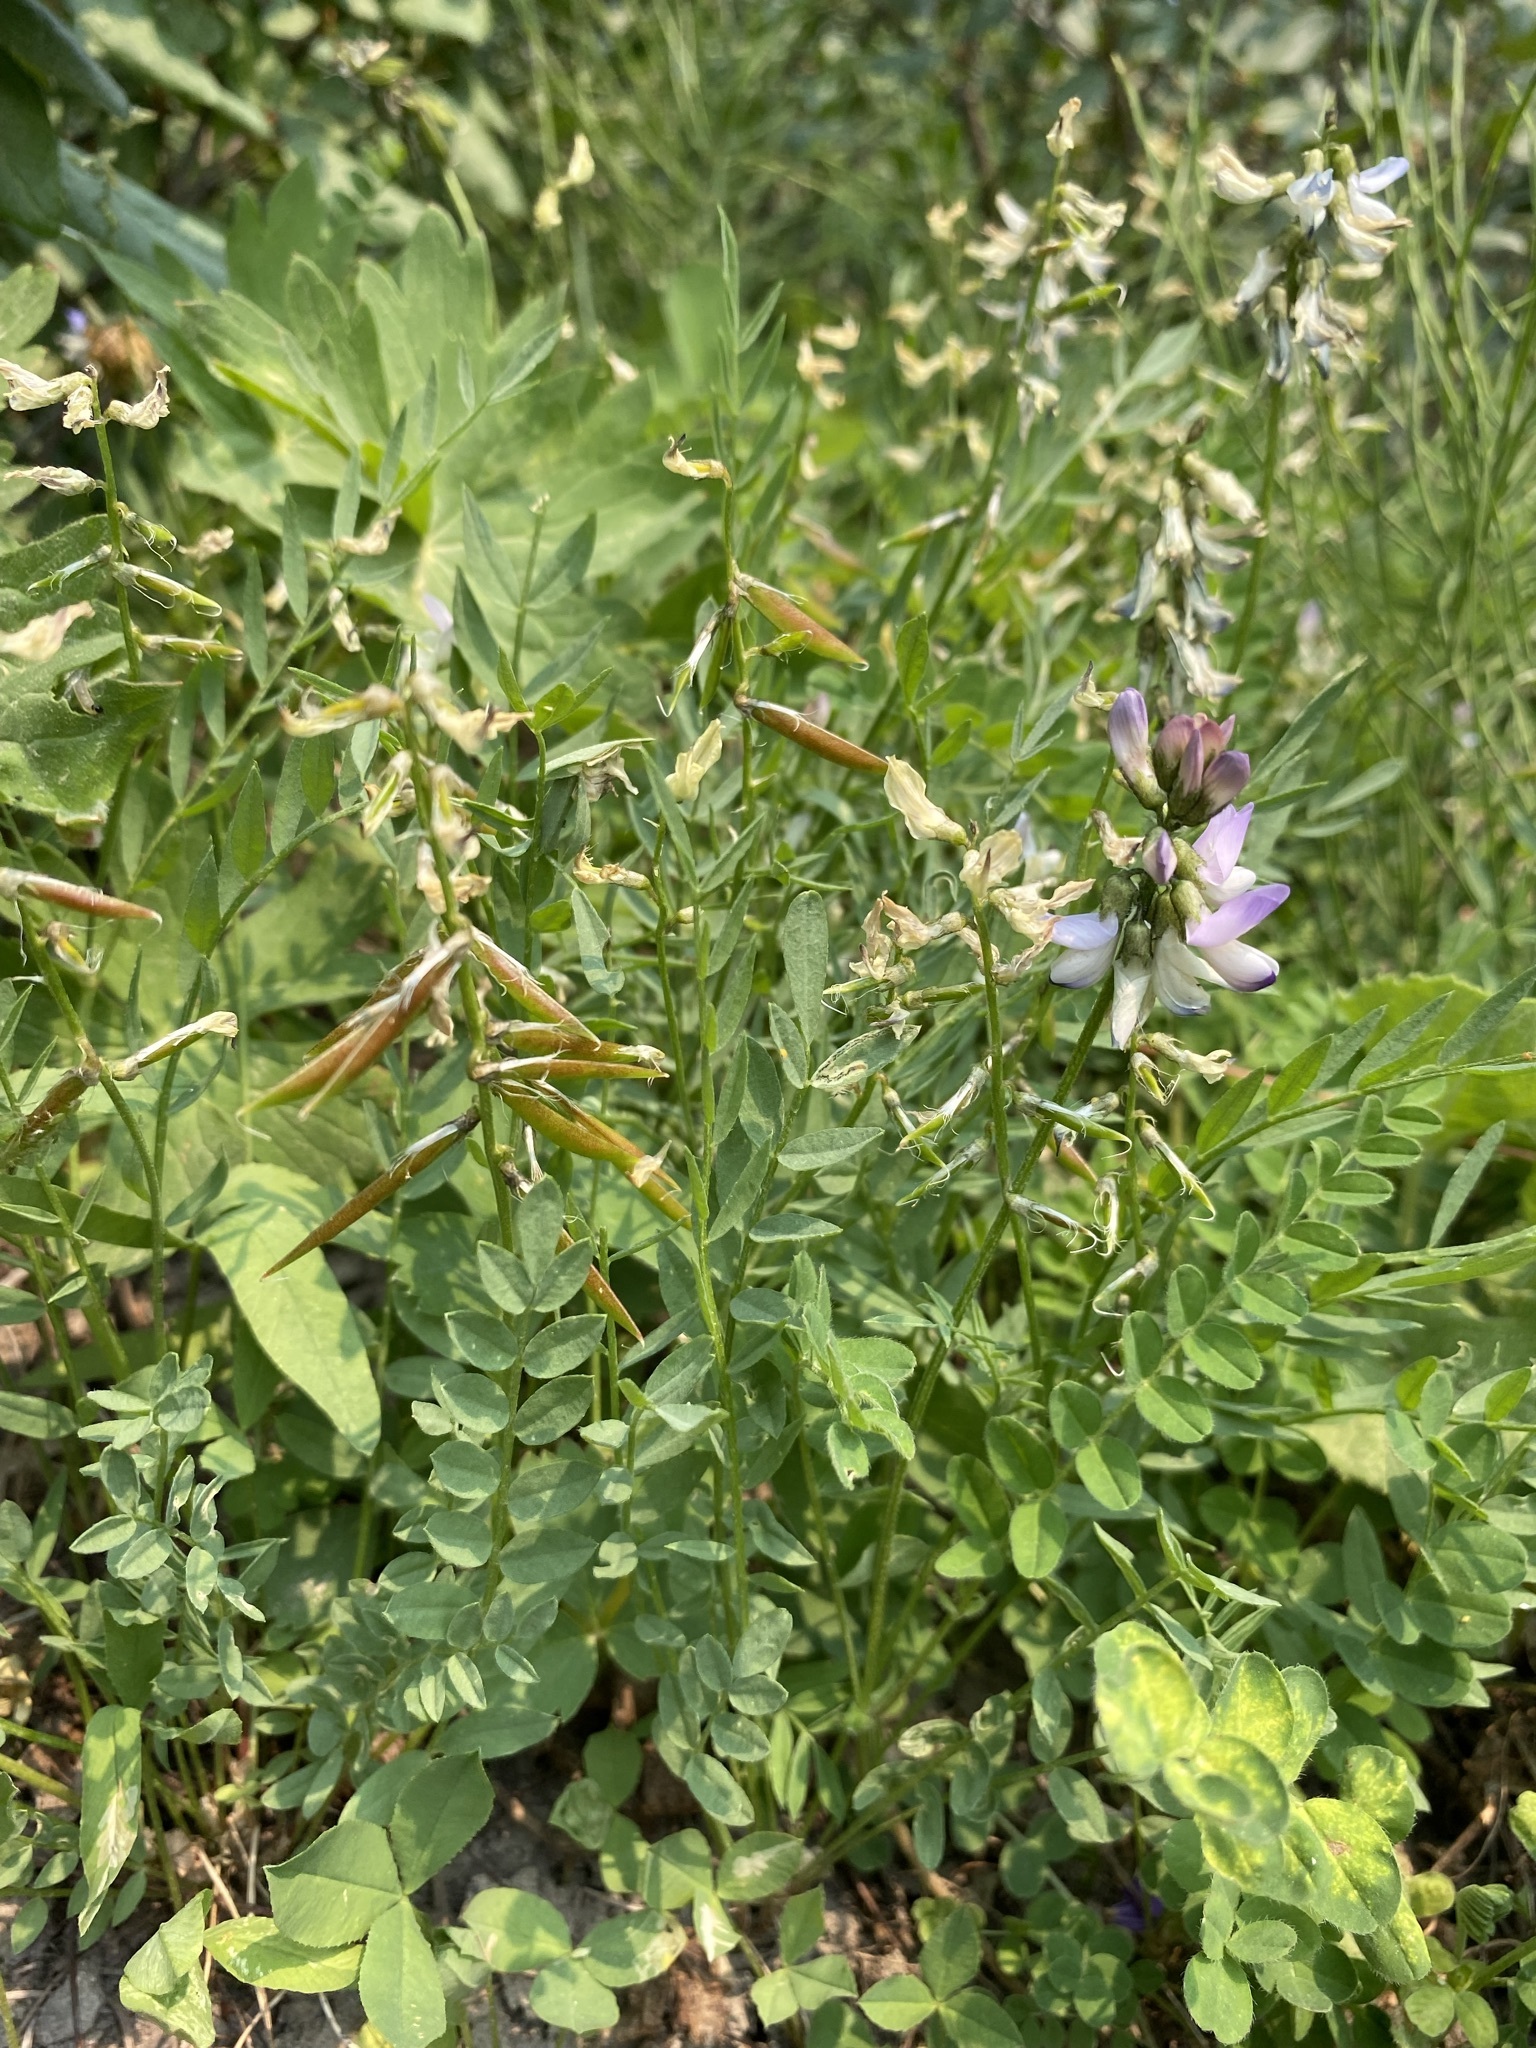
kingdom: Plantae
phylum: Tracheophyta
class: Magnoliopsida
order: Fabales
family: Fabaceae
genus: Astragalus
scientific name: Astragalus miser
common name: Timber milkvetch
